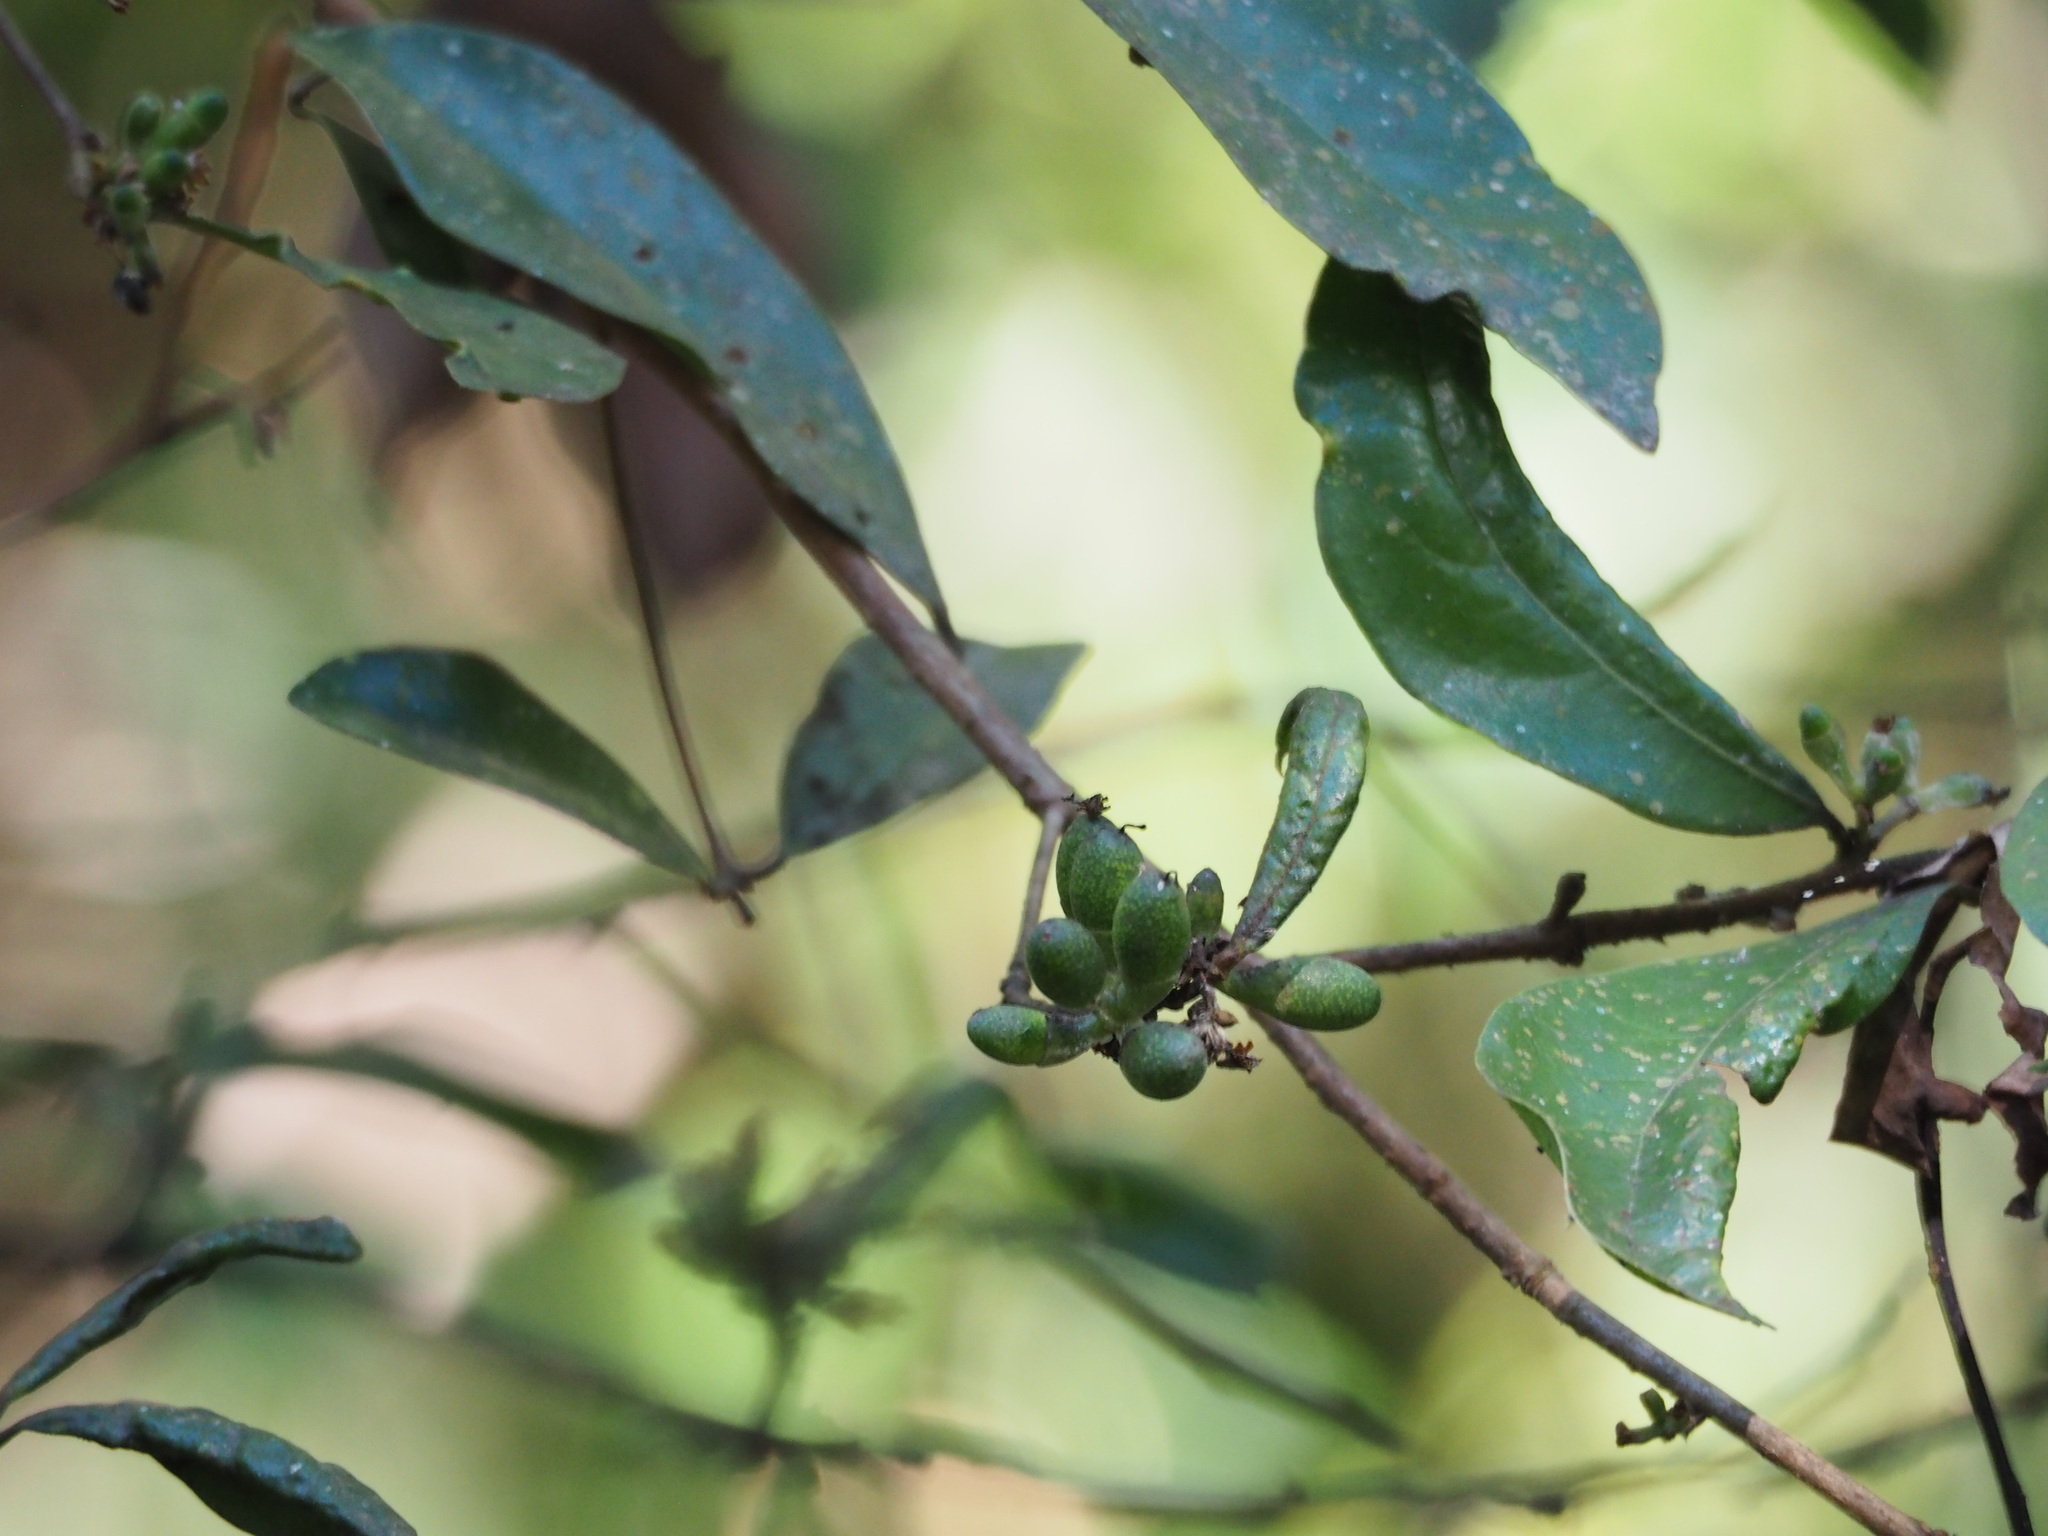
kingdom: Plantae
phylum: Tracheophyta
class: Magnoliopsida
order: Laurales
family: Lauraceae
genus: Litsea
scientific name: Litsea hypophaea
